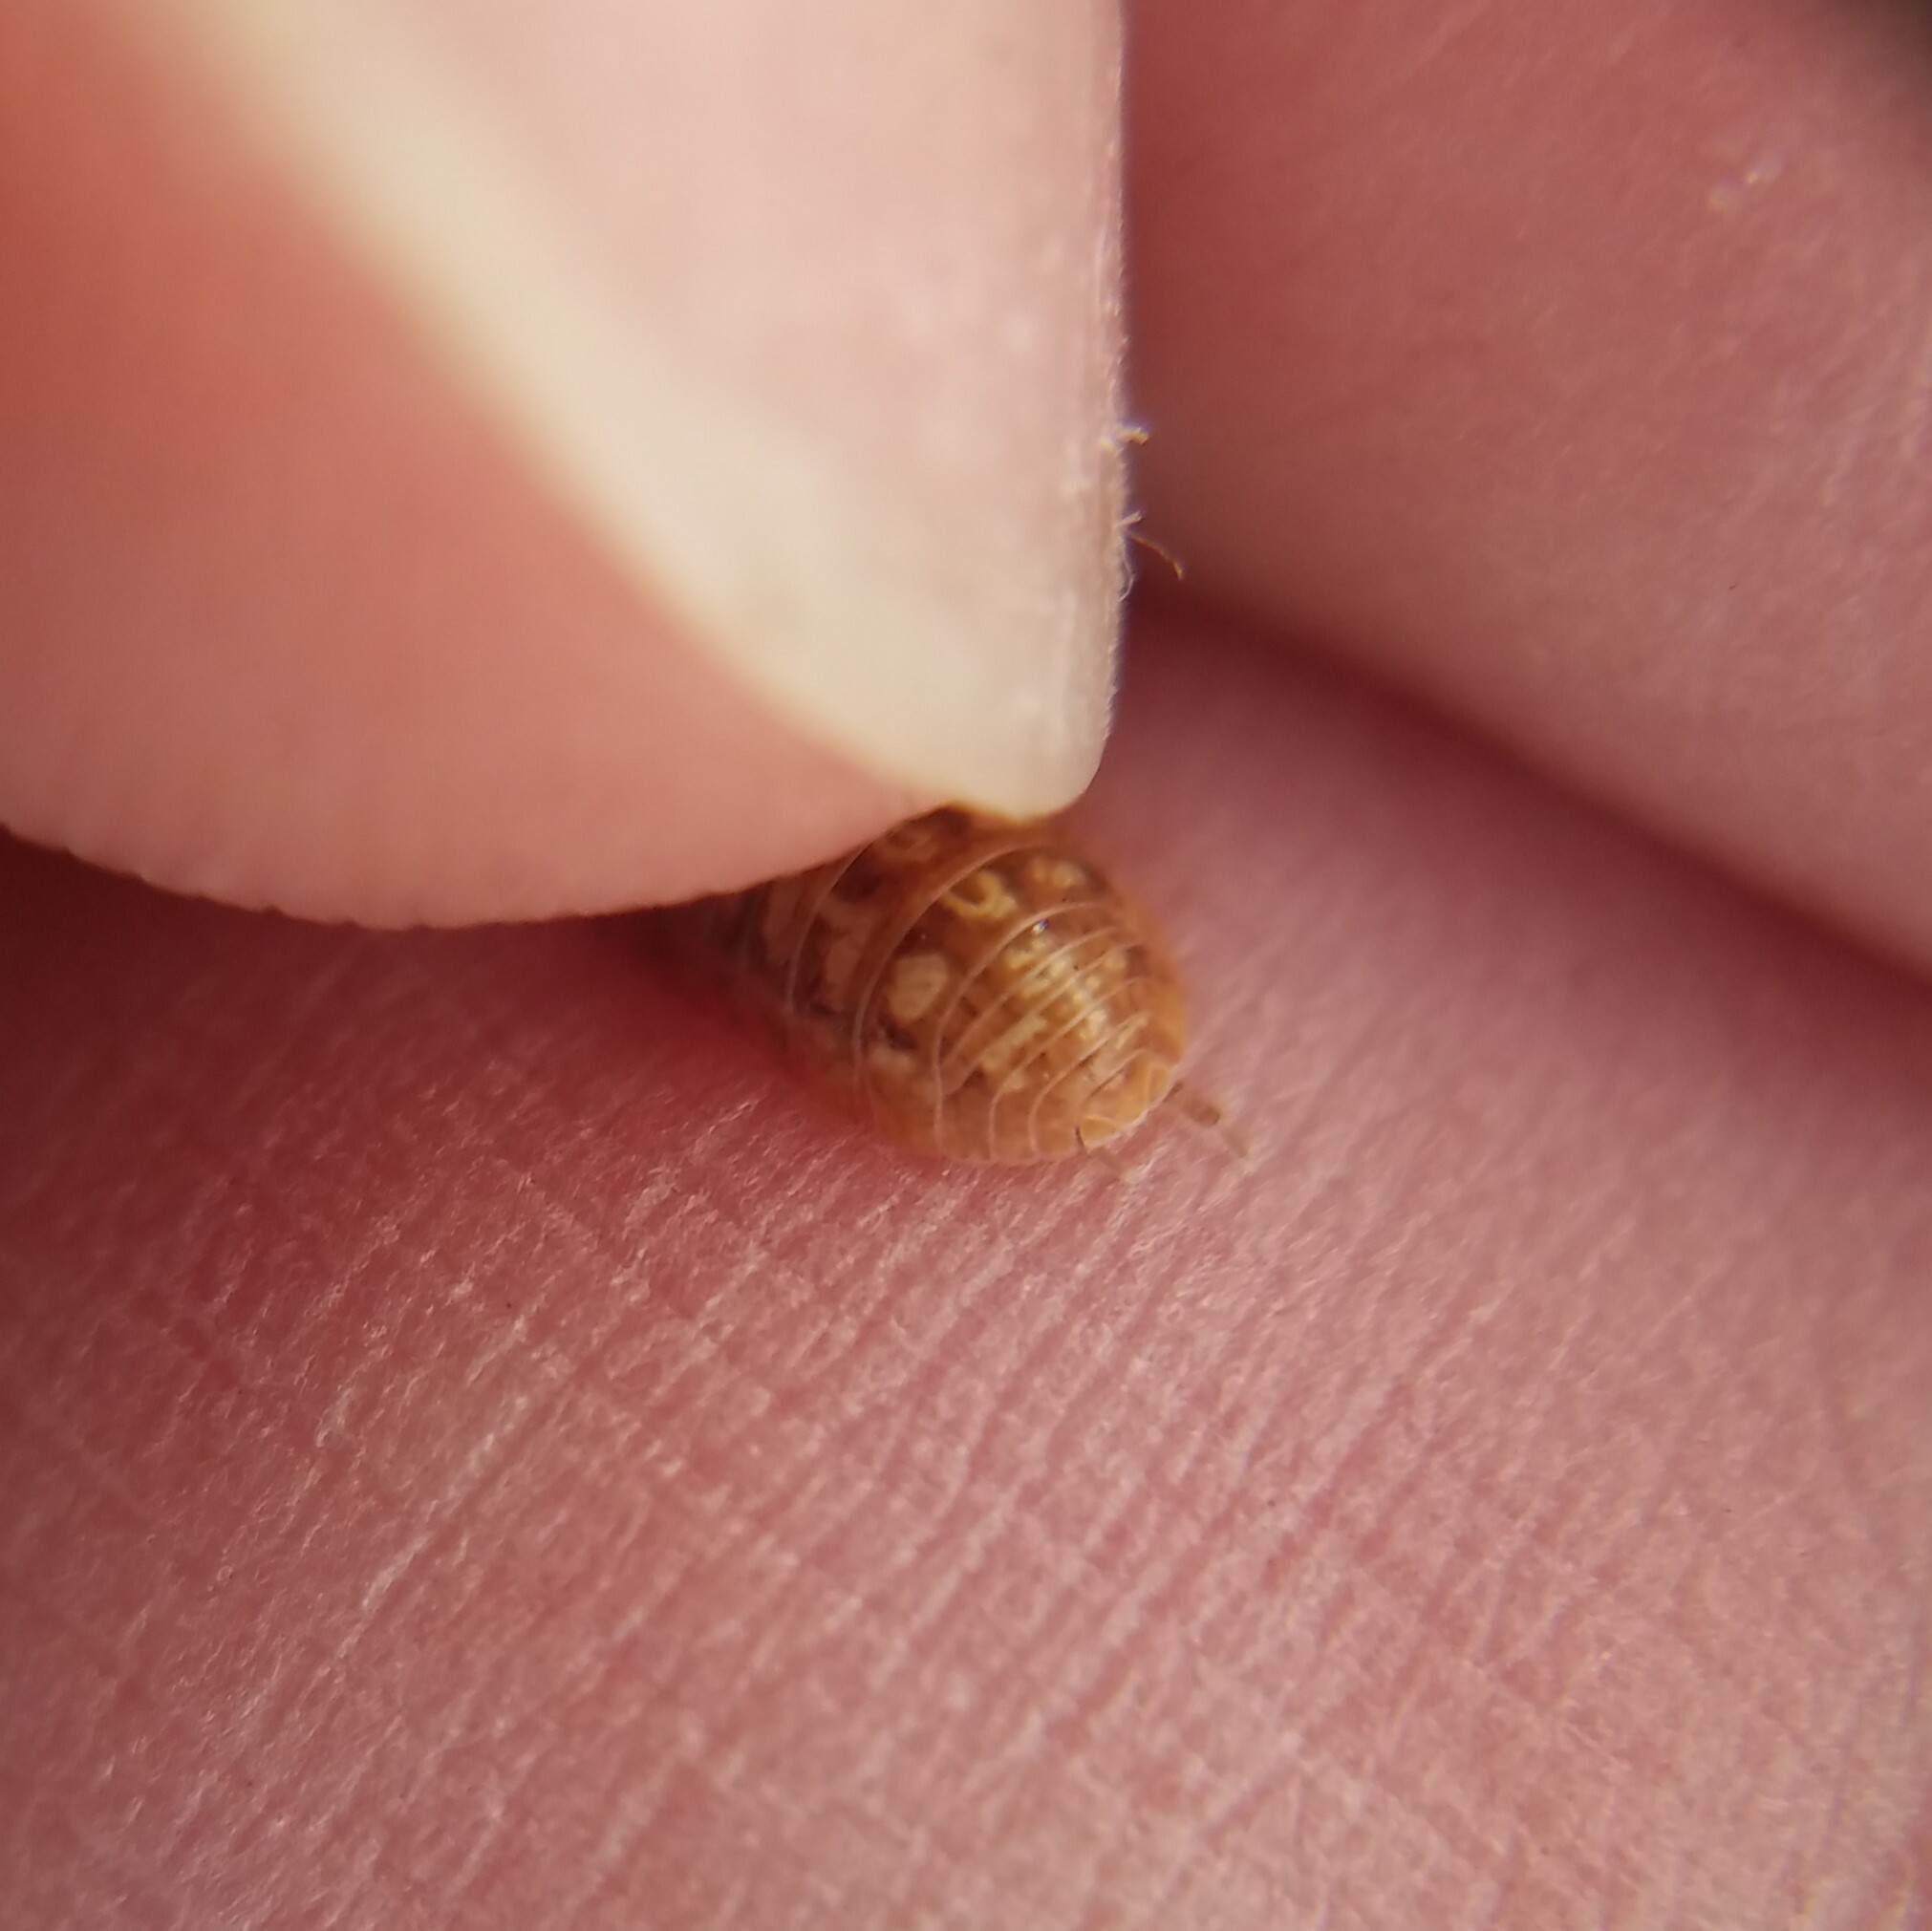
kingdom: Animalia
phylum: Arthropoda
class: Malacostraca
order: Isopoda
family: Armadillidiidae
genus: Armadillidium
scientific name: Armadillidium vulgare
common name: Common pill woodlouse
